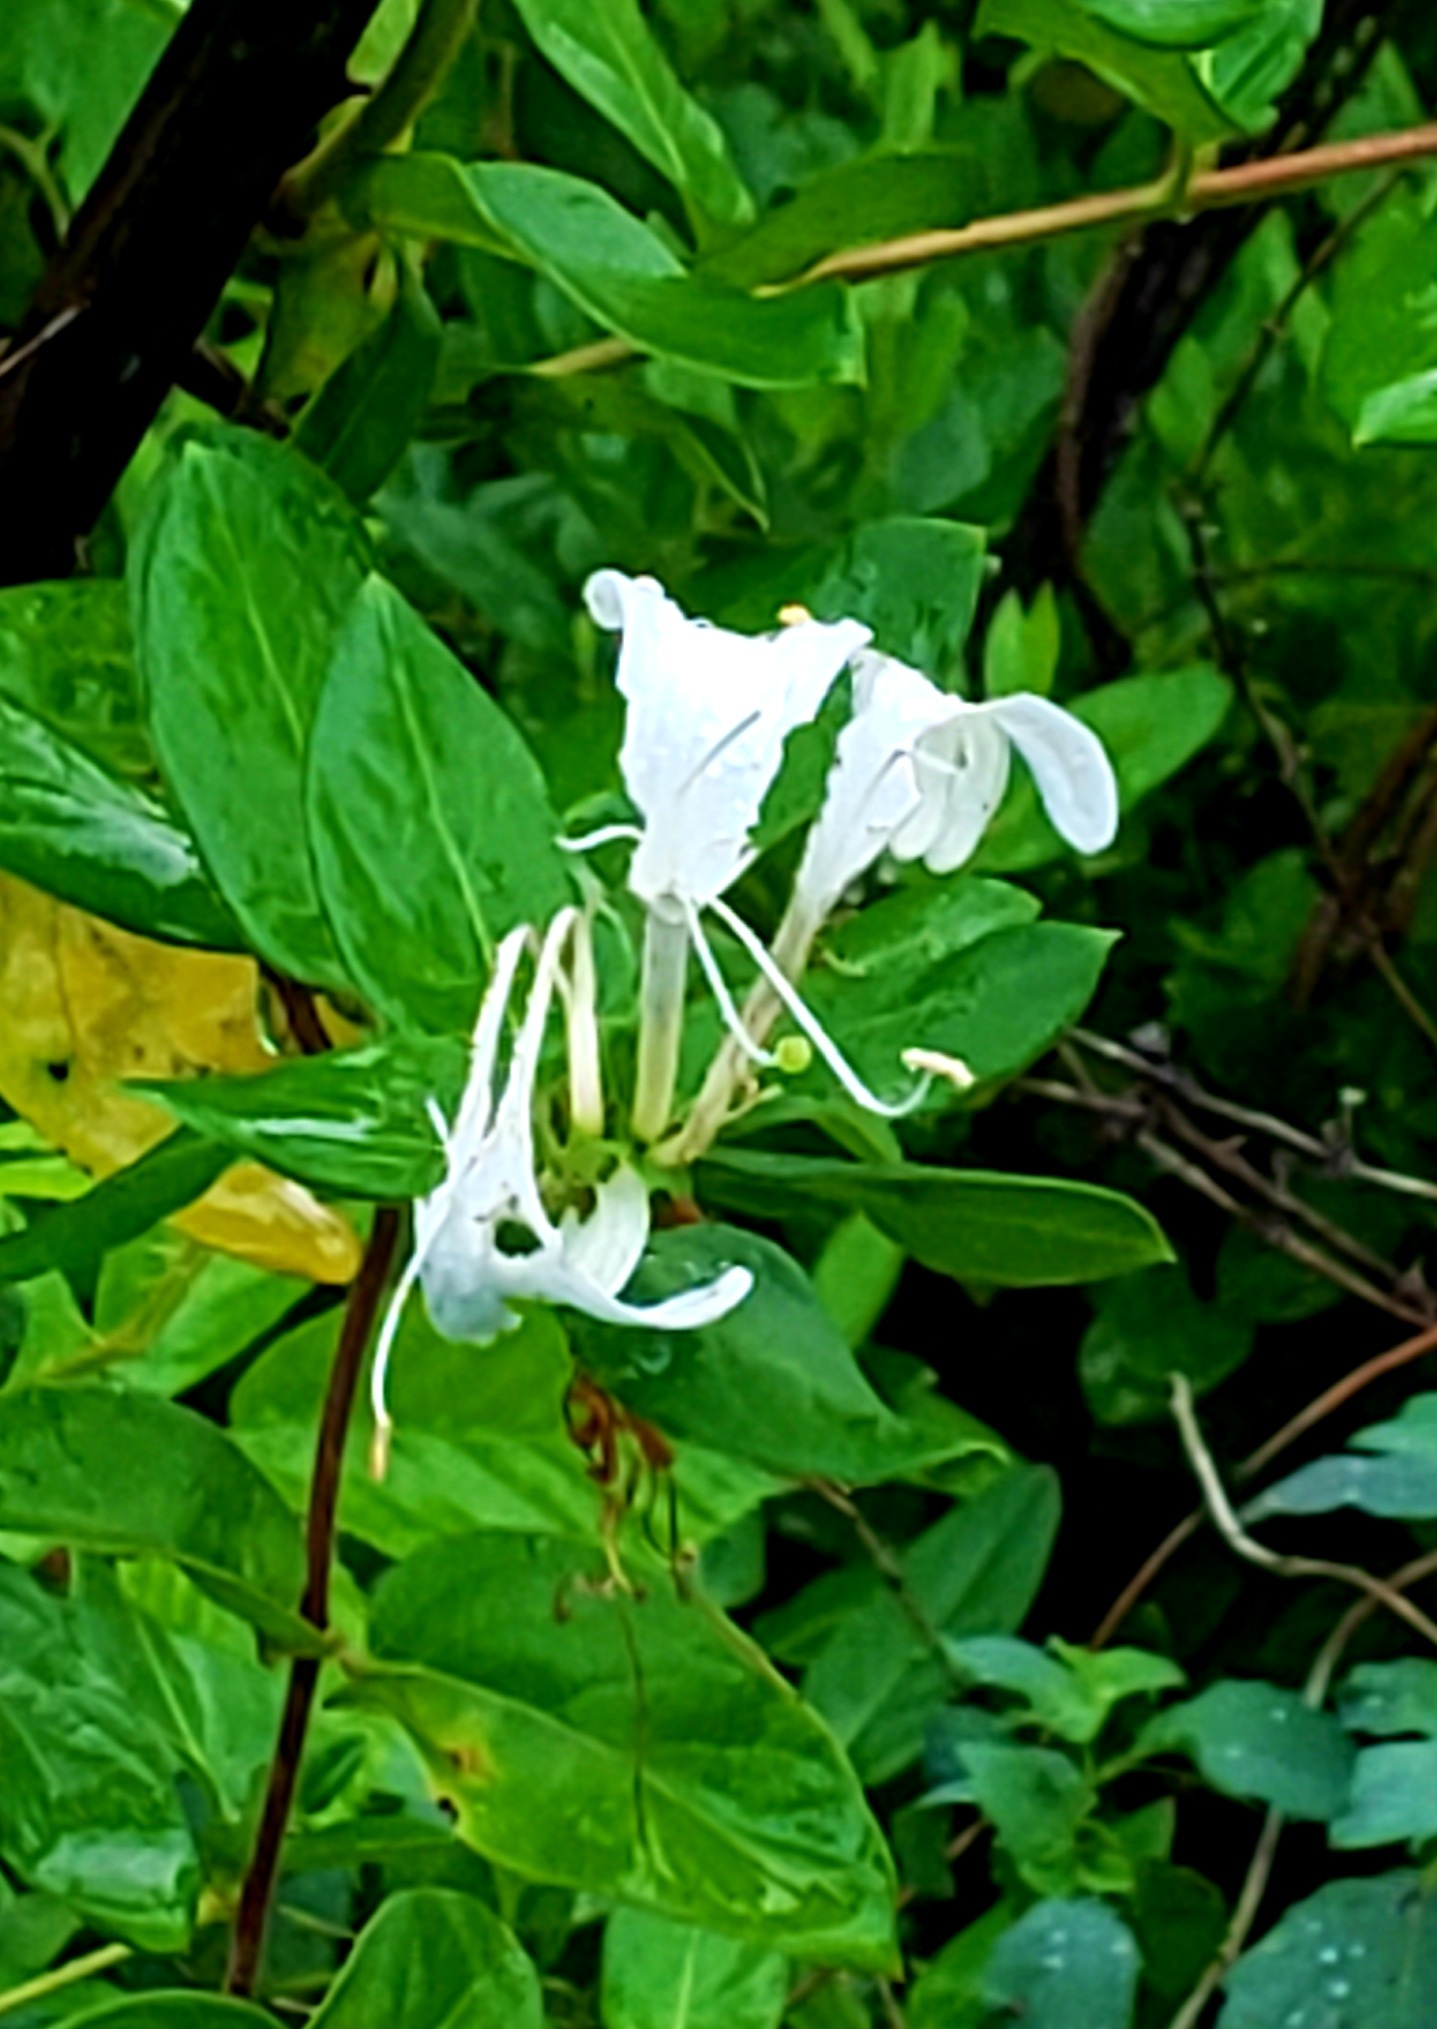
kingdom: Plantae
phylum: Tracheophyta
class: Magnoliopsida
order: Dipsacales
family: Caprifoliaceae
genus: Lonicera
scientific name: Lonicera japonica
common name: Japanese honeysuckle
